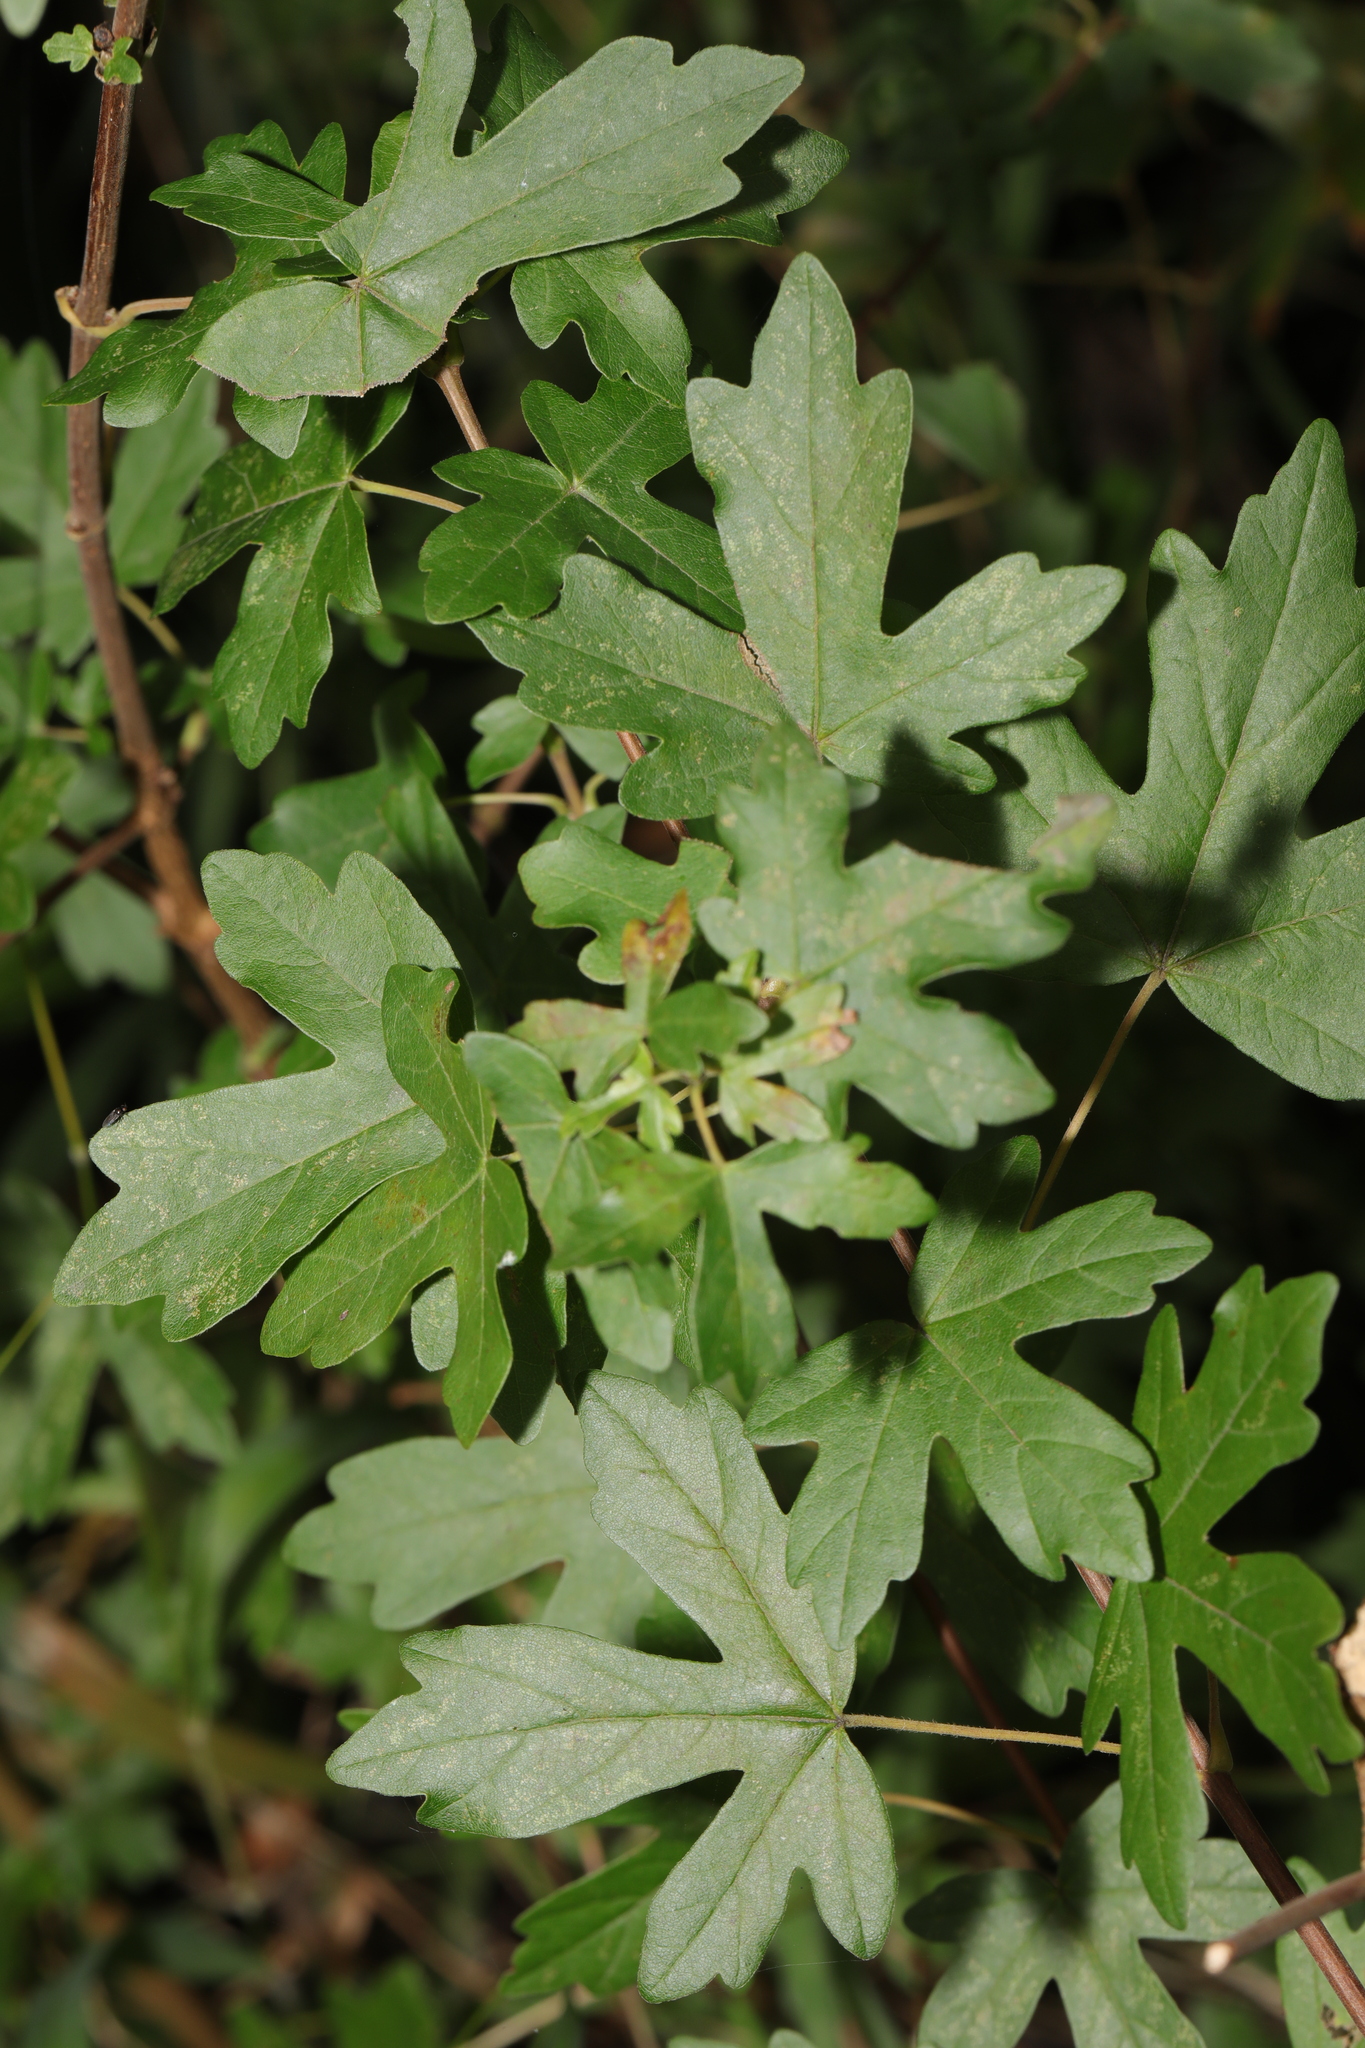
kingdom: Plantae
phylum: Tracheophyta
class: Magnoliopsida
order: Sapindales
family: Sapindaceae
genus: Acer
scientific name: Acer campestre
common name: Field maple
